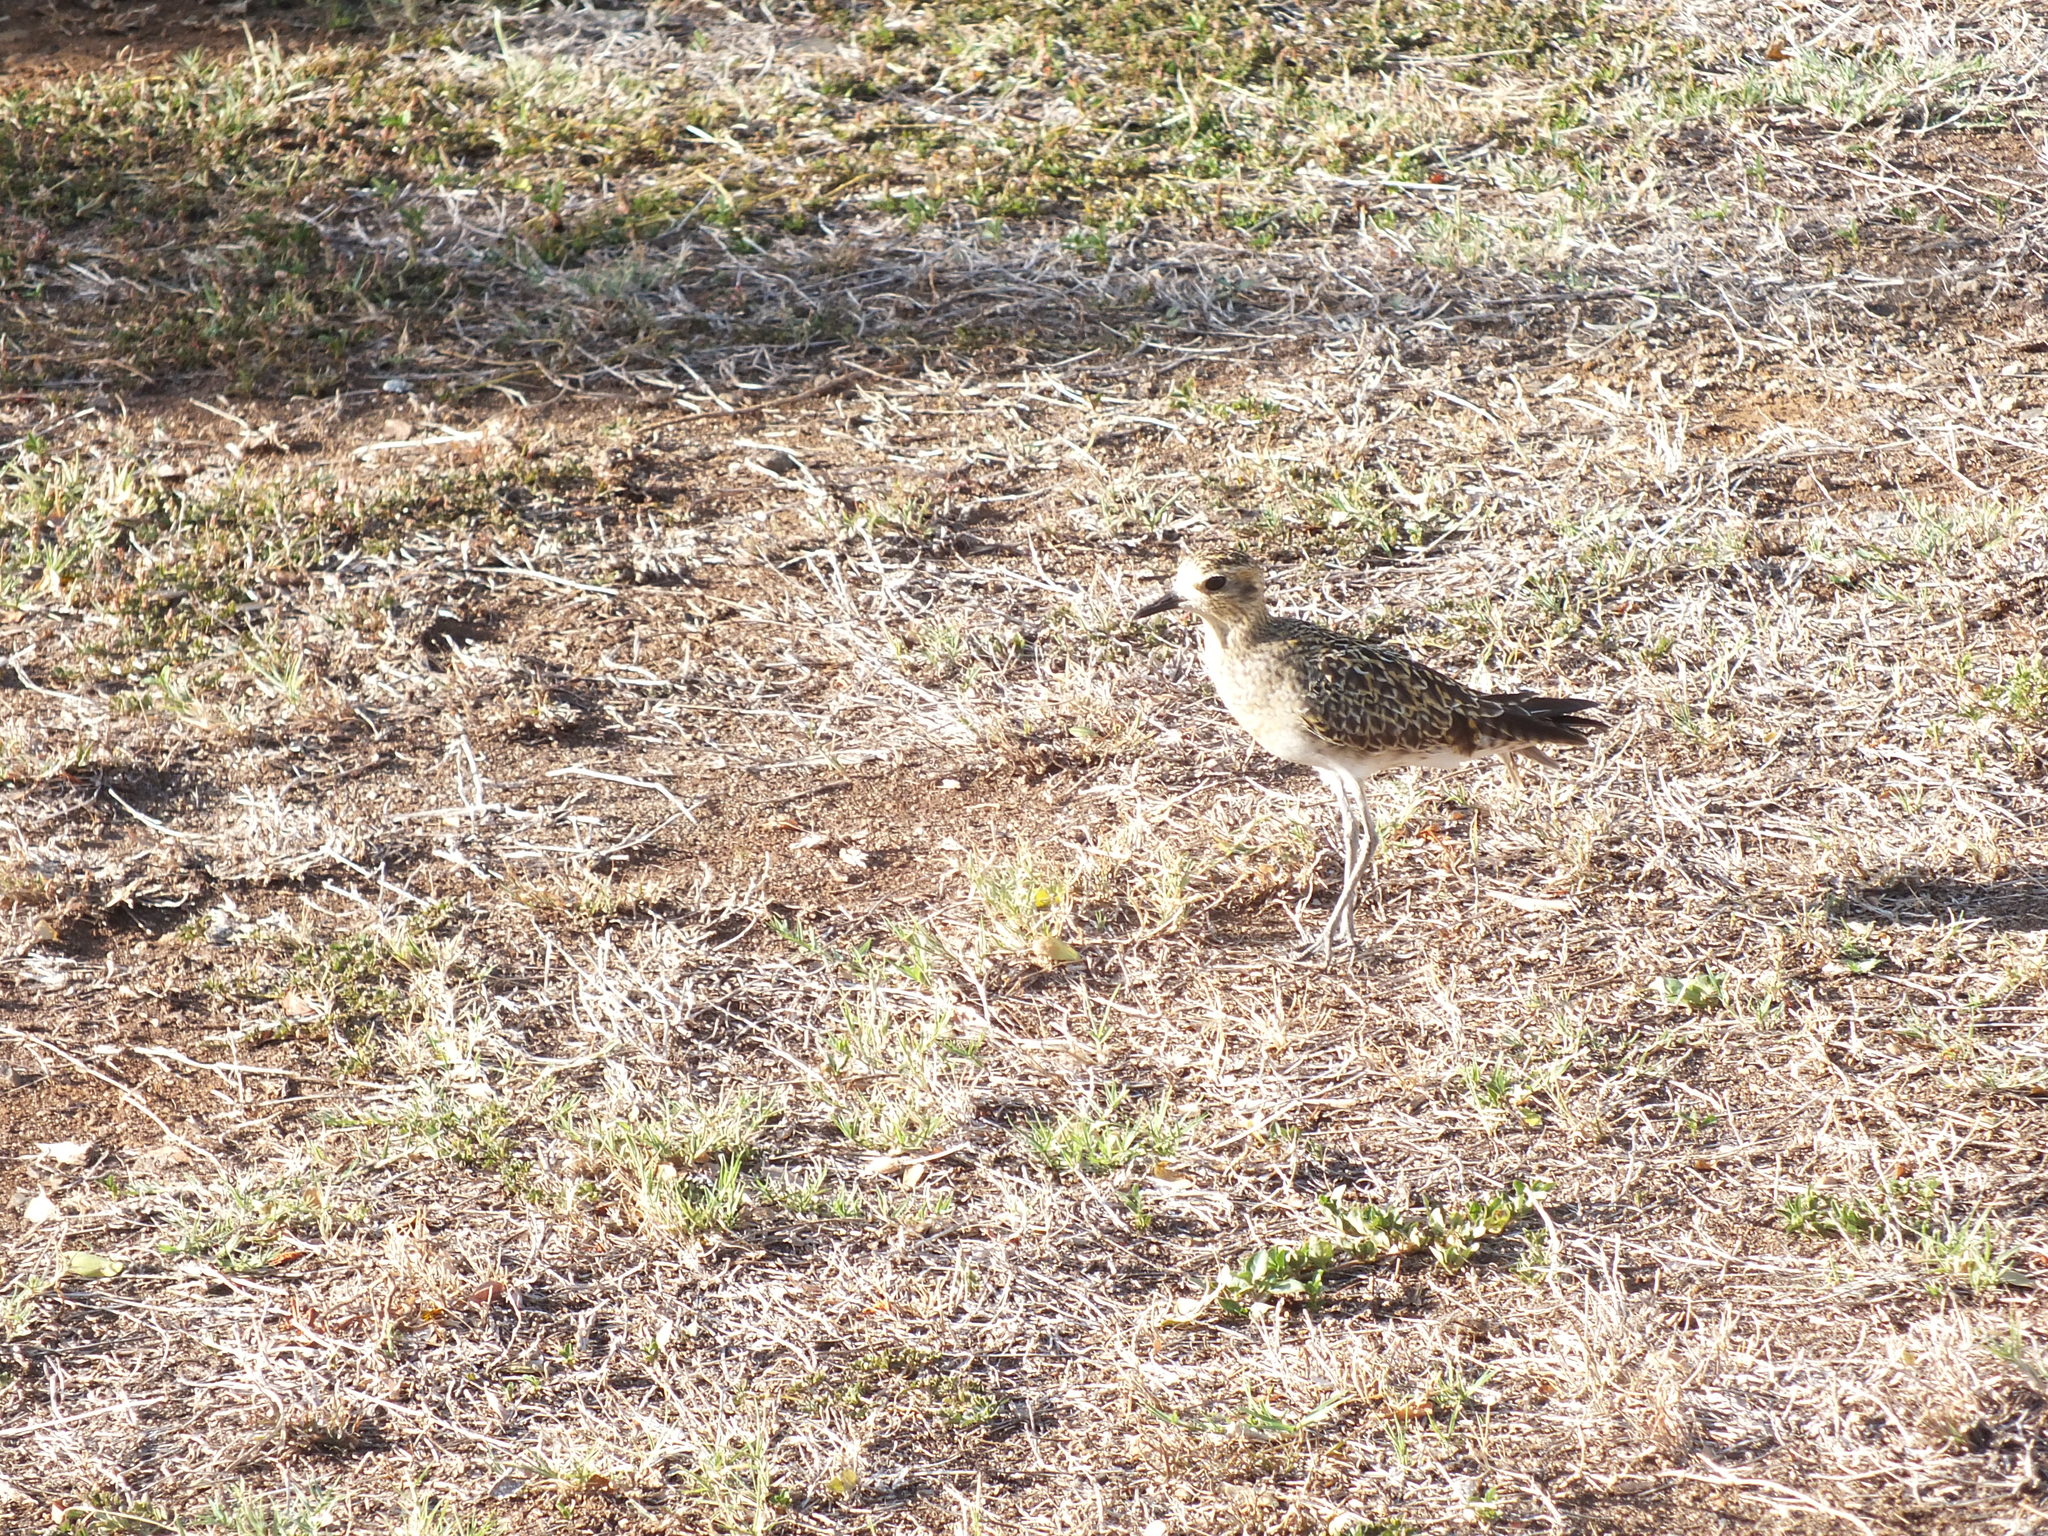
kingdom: Animalia
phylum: Chordata
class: Aves
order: Charadriiformes
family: Charadriidae
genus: Pluvialis
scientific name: Pluvialis fulva
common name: Pacific golden plover
